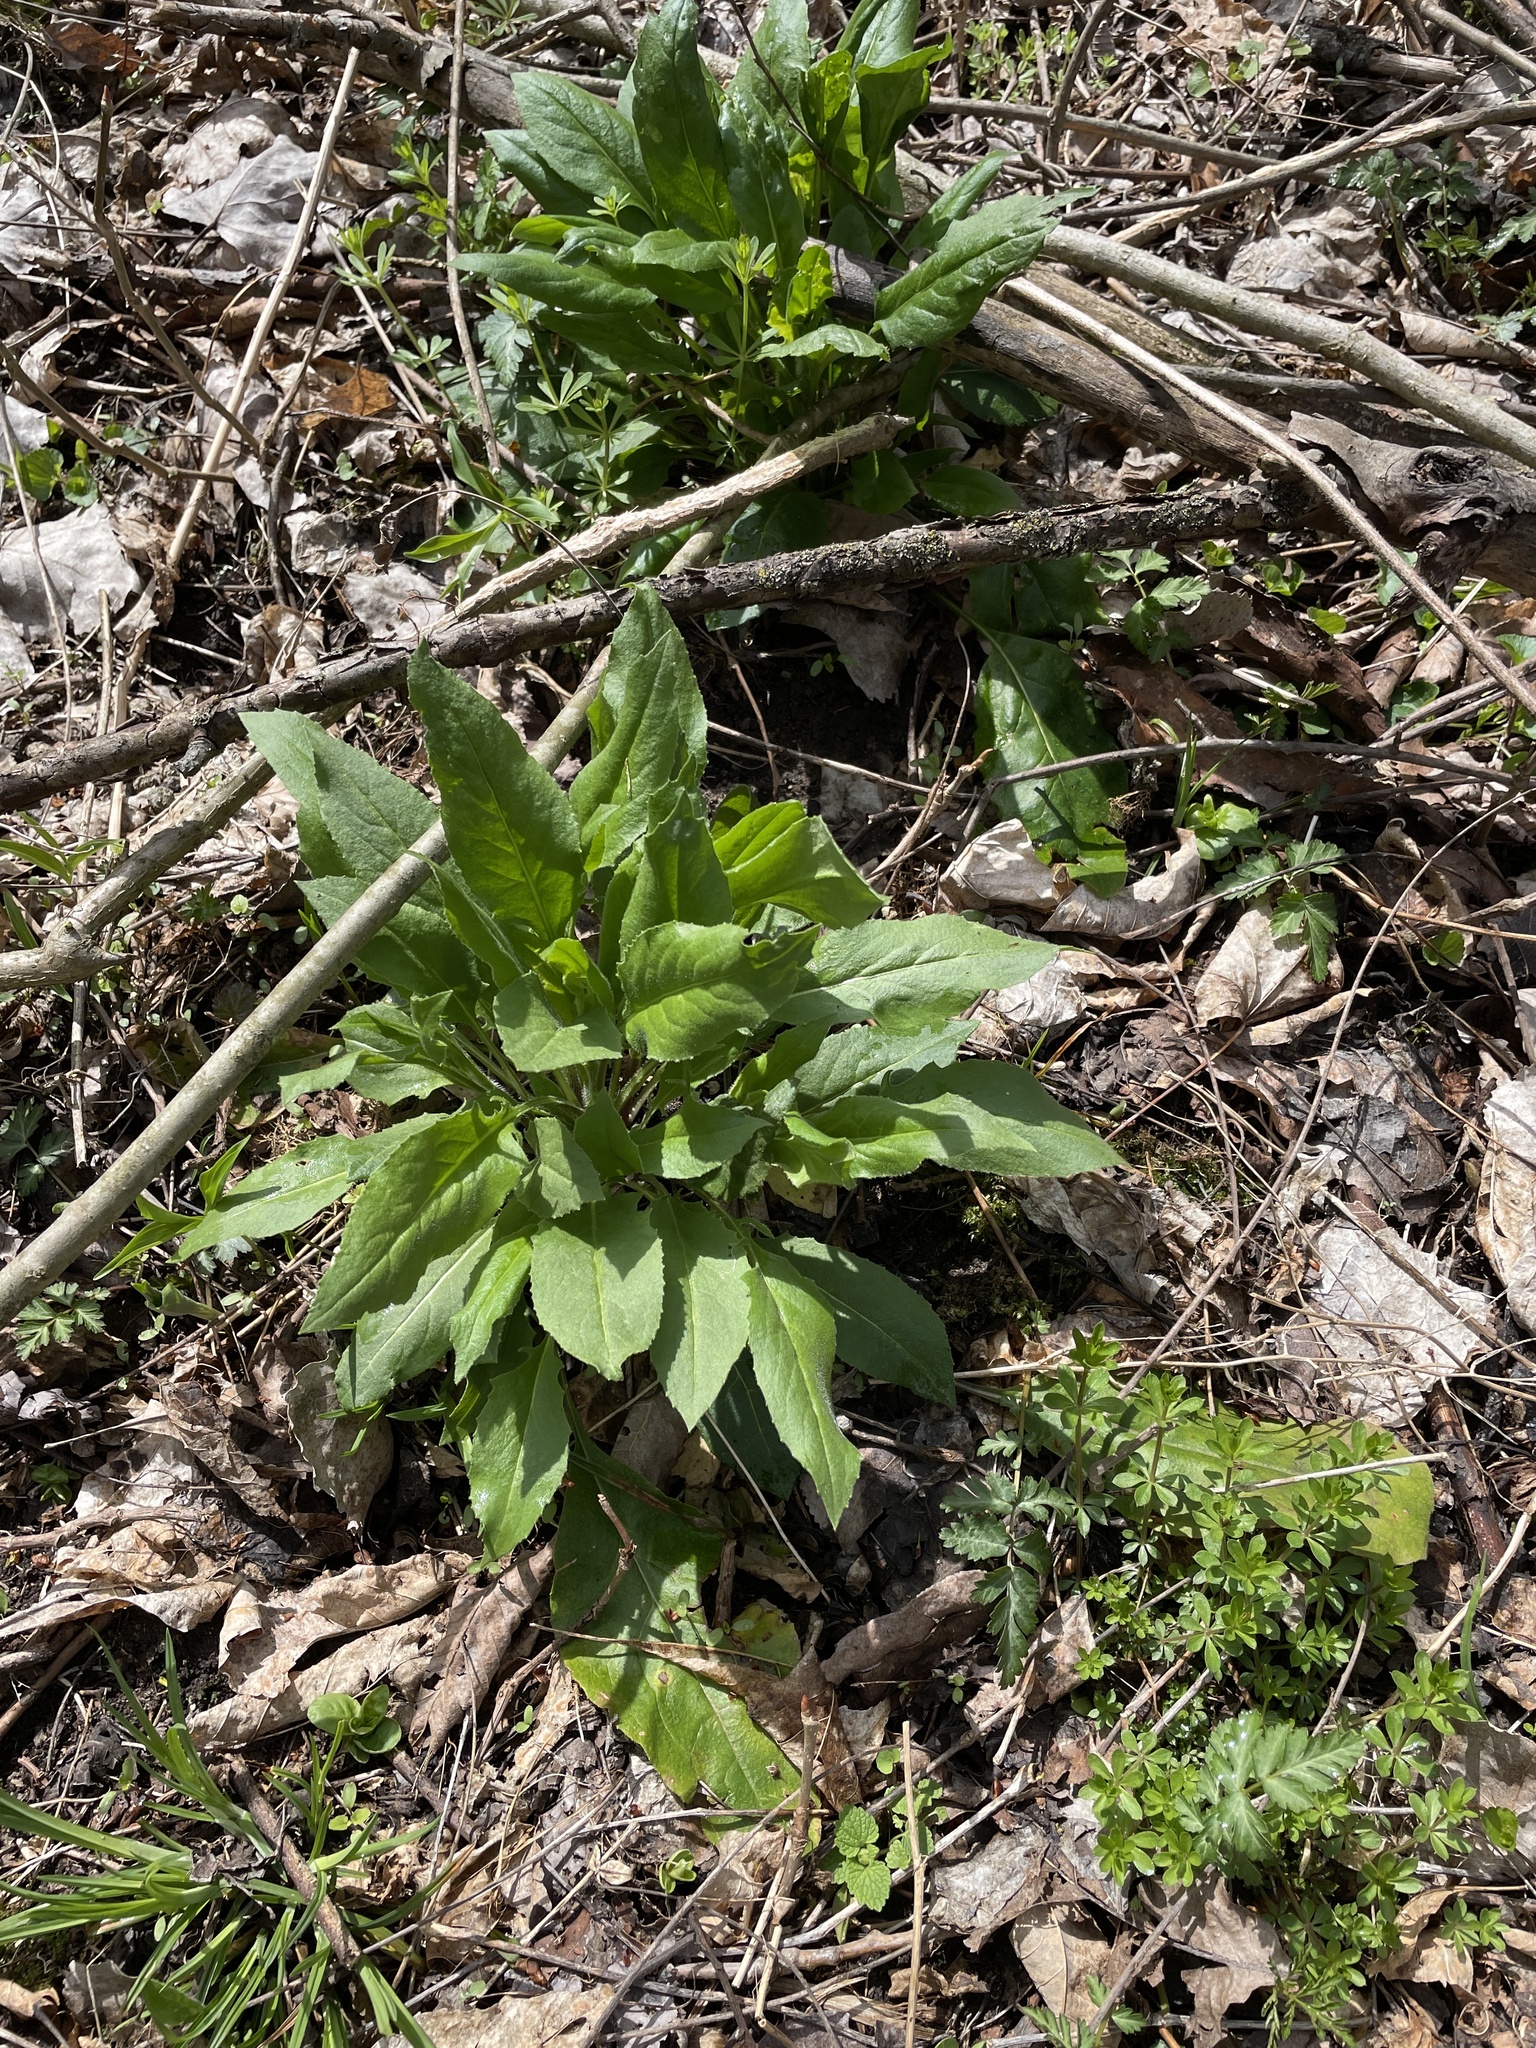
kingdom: Plantae
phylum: Tracheophyta
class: Magnoliopsida
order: Brassicales
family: Brassicaceae
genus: Hesperis
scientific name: Hesperis matronalis
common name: Dame's-violet
